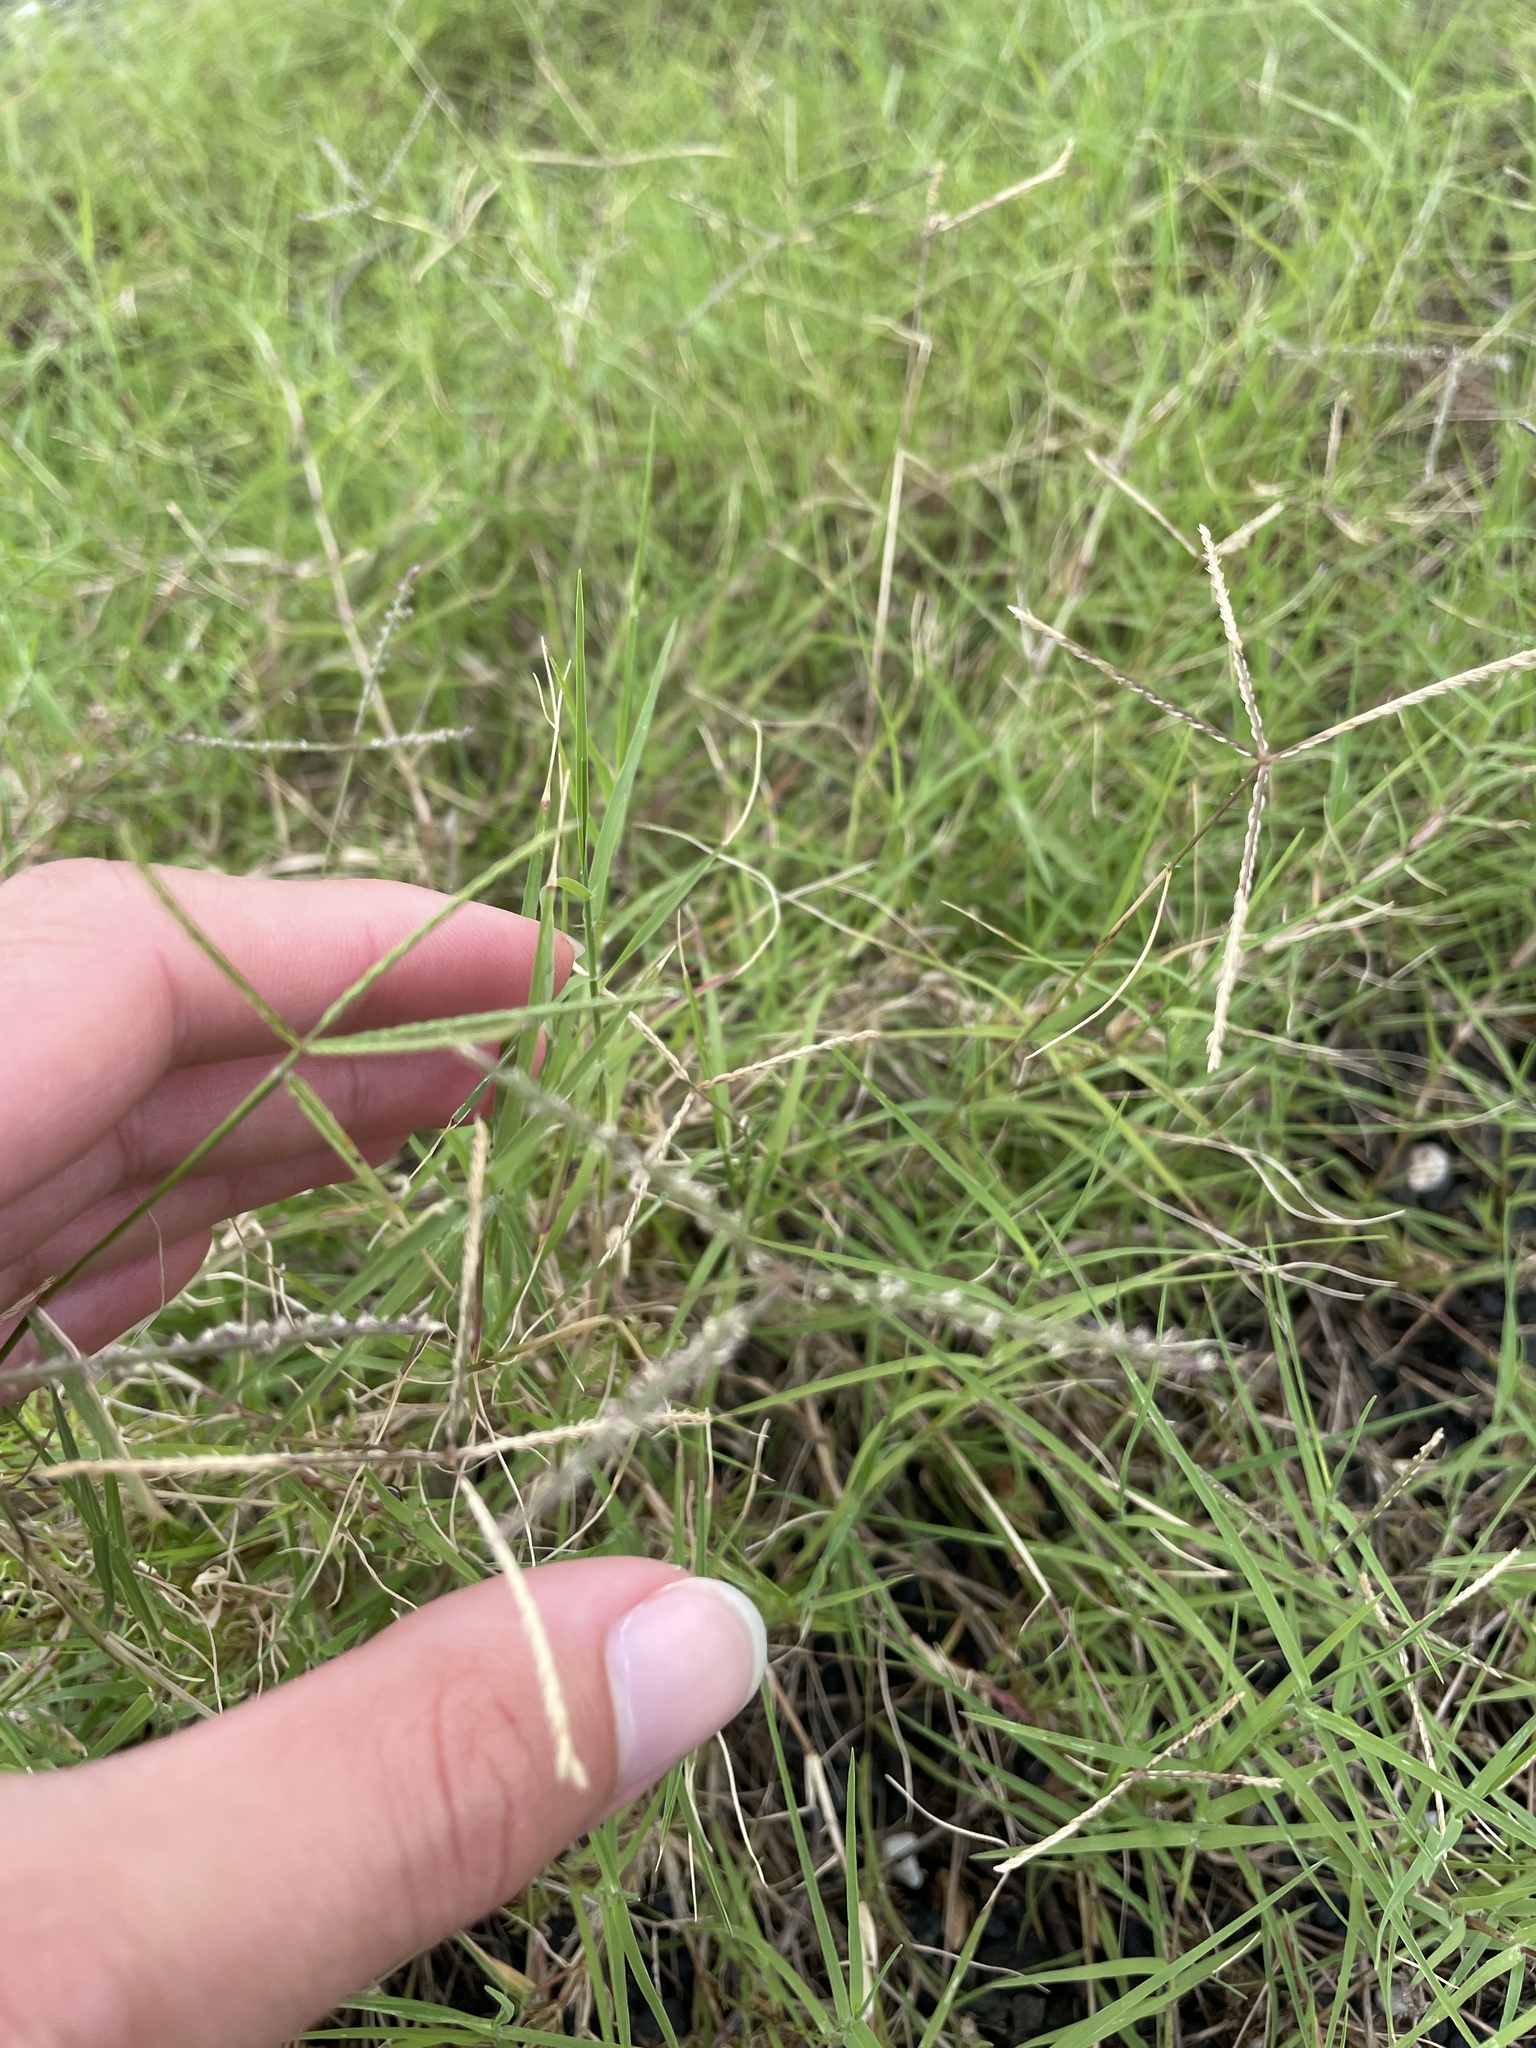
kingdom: Plantae
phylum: Tracheophyta
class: Liliopsida
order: Poales
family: Poaceae
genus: Cynodon
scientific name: Cynodon dactylon
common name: Bermuda grass
